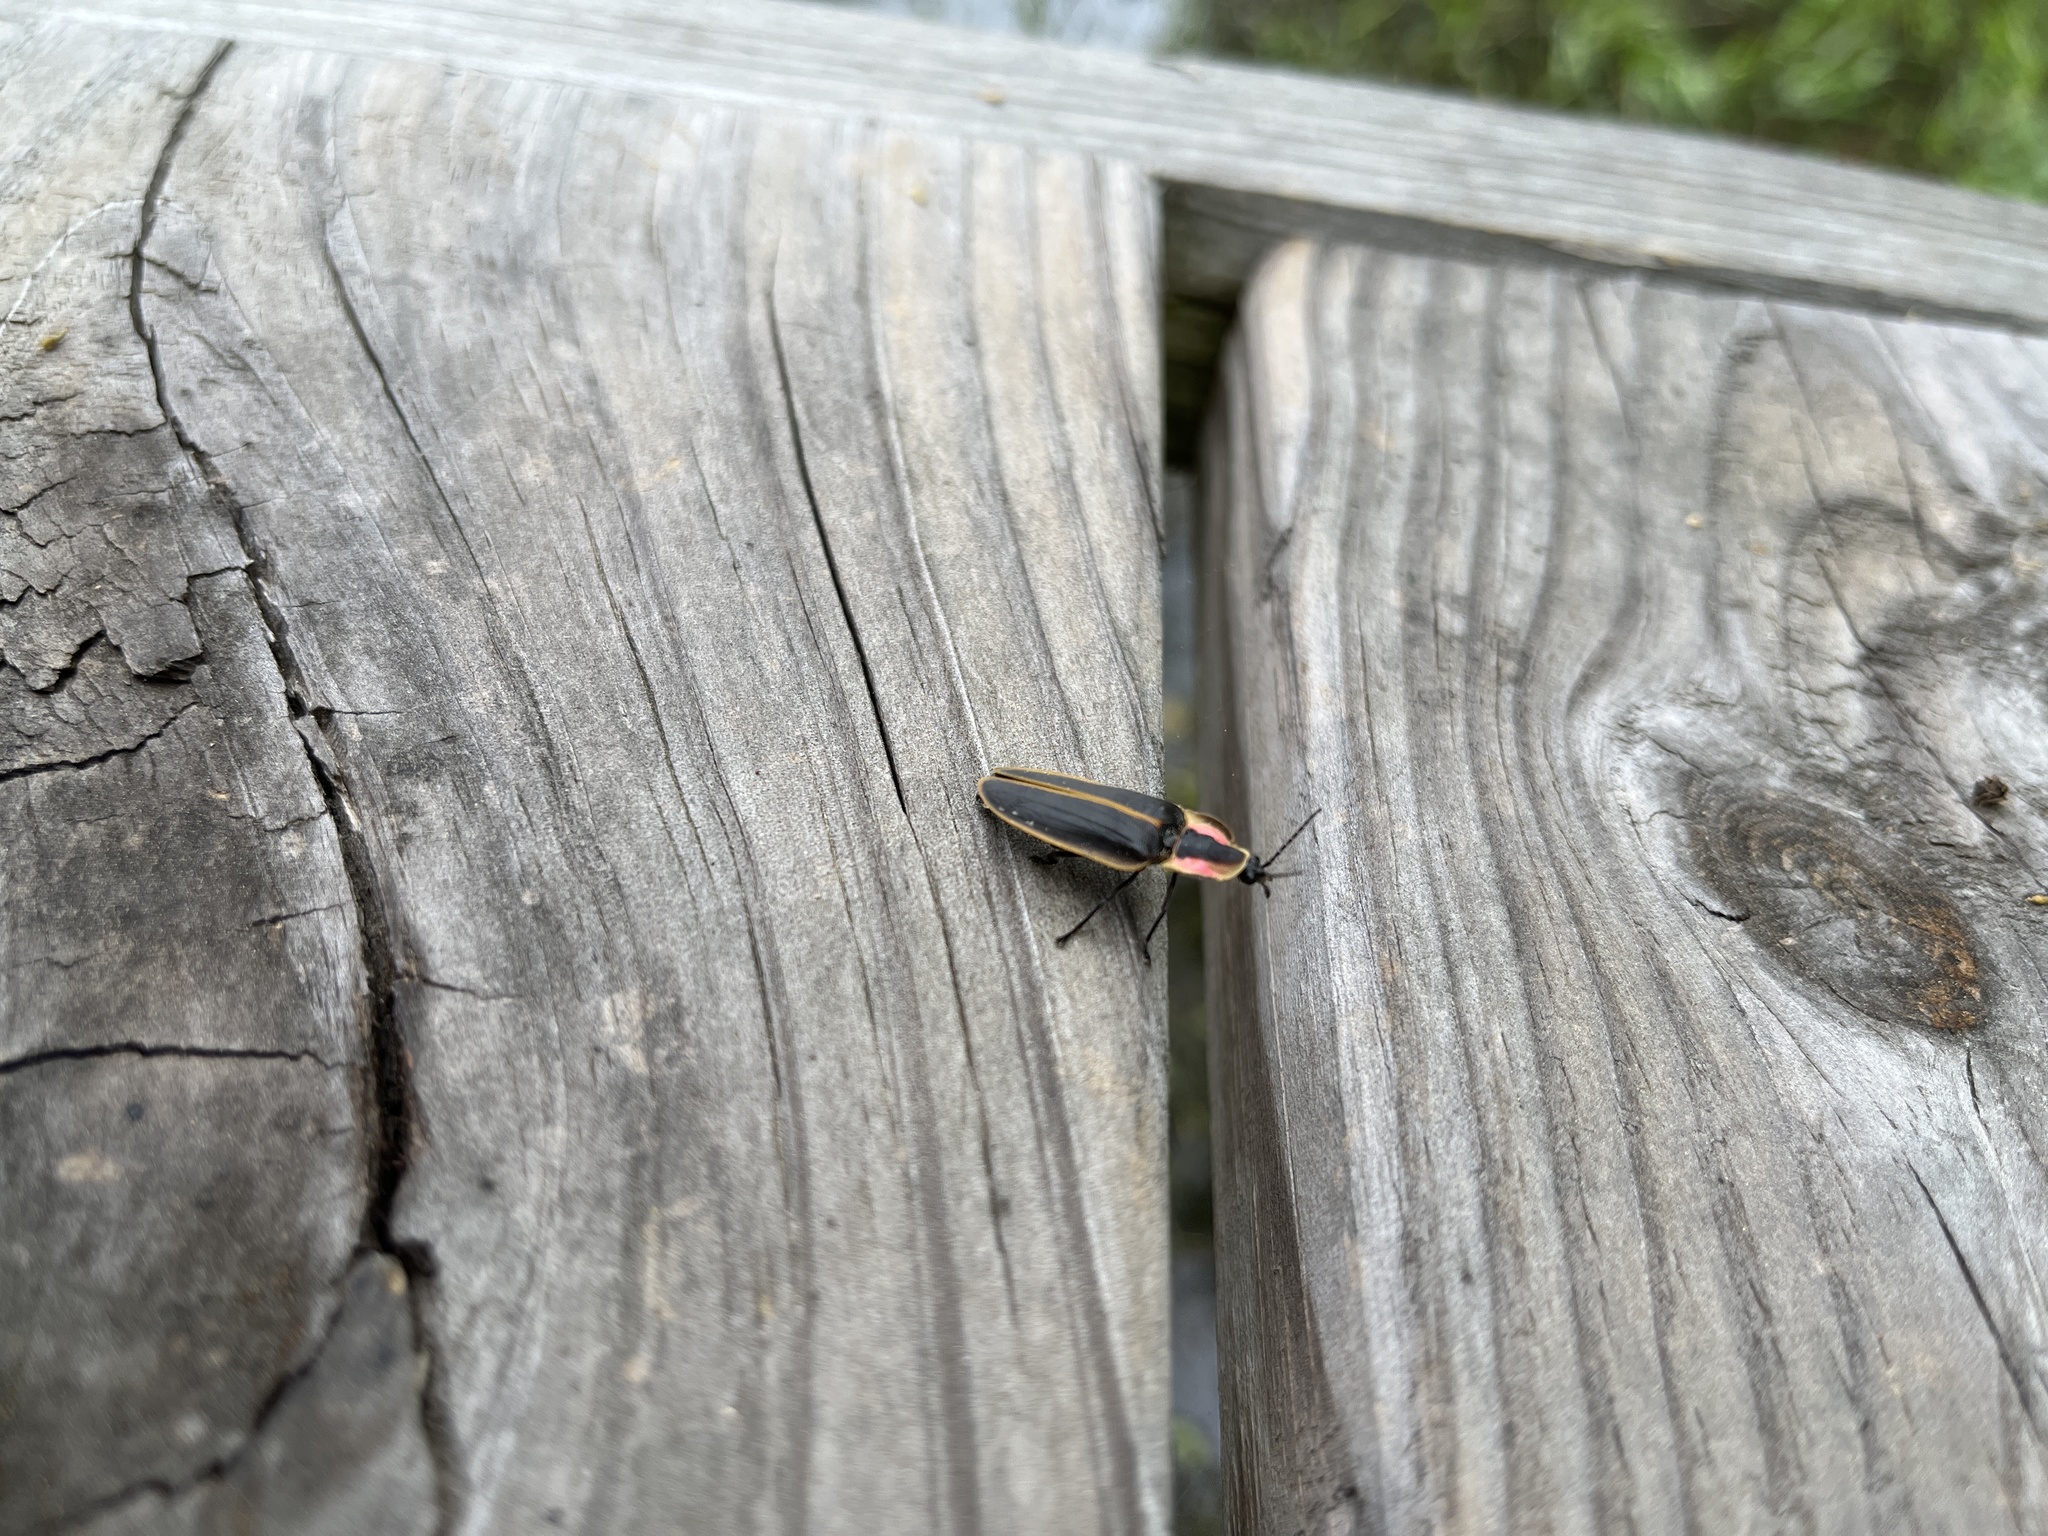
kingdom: Animalia
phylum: Arthropoda
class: Insecta
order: Coleoptera
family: Lampyridae
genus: Pyractomena
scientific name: Pyractomena borealis
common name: Northern firefly
